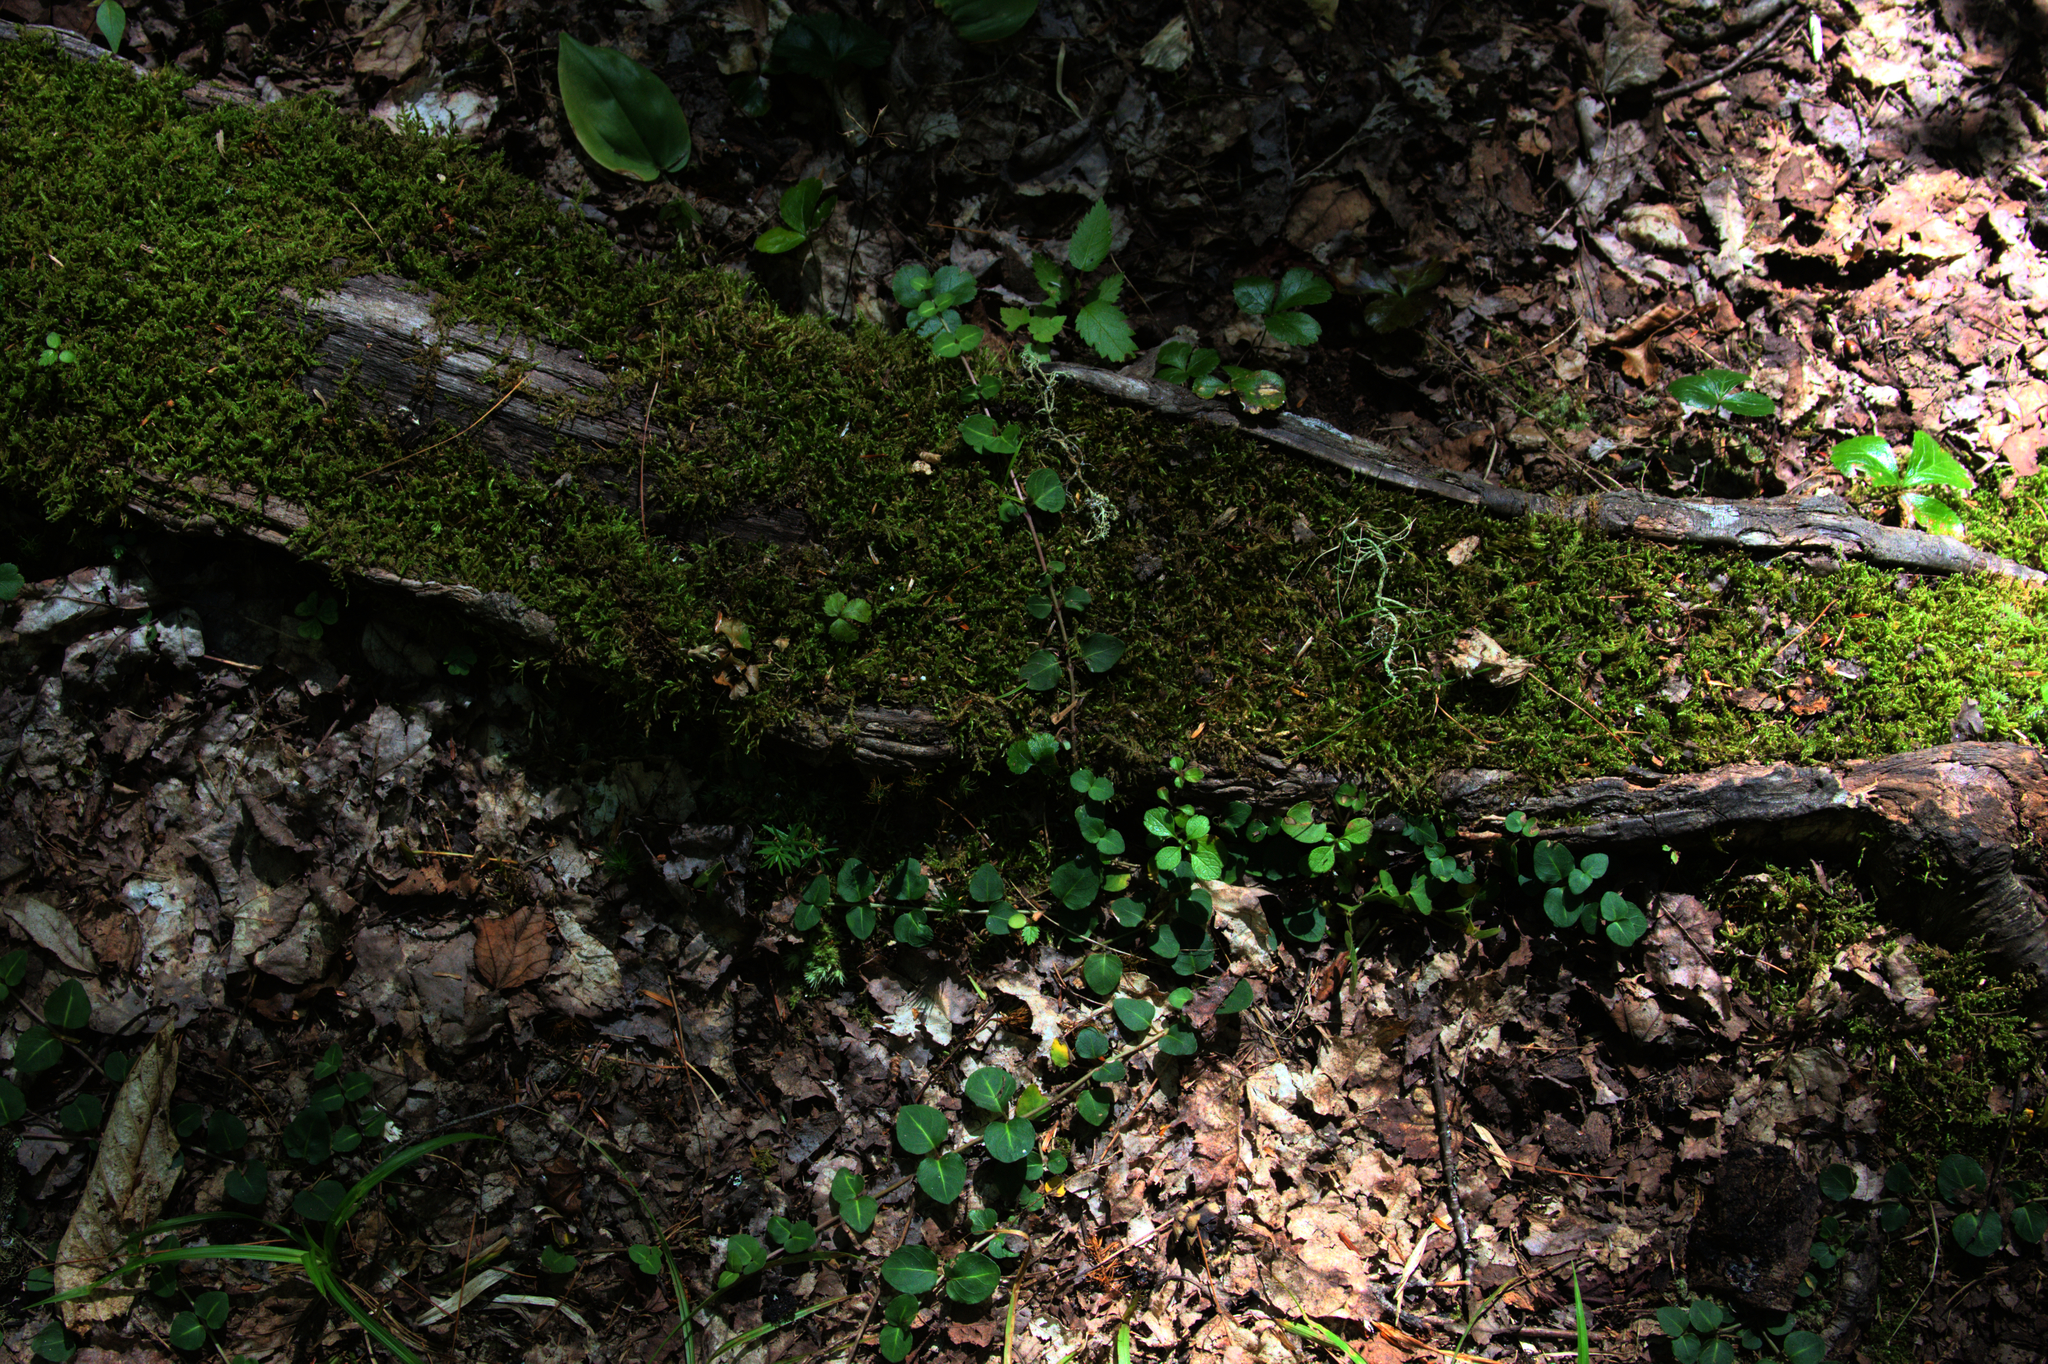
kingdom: Plantae
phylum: Tracheophyta
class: Liliopsida
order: Asparagales
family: Asparagaceae
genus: Maianthemum
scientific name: Maianthemum canadense
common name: False lily-of-the-valley
